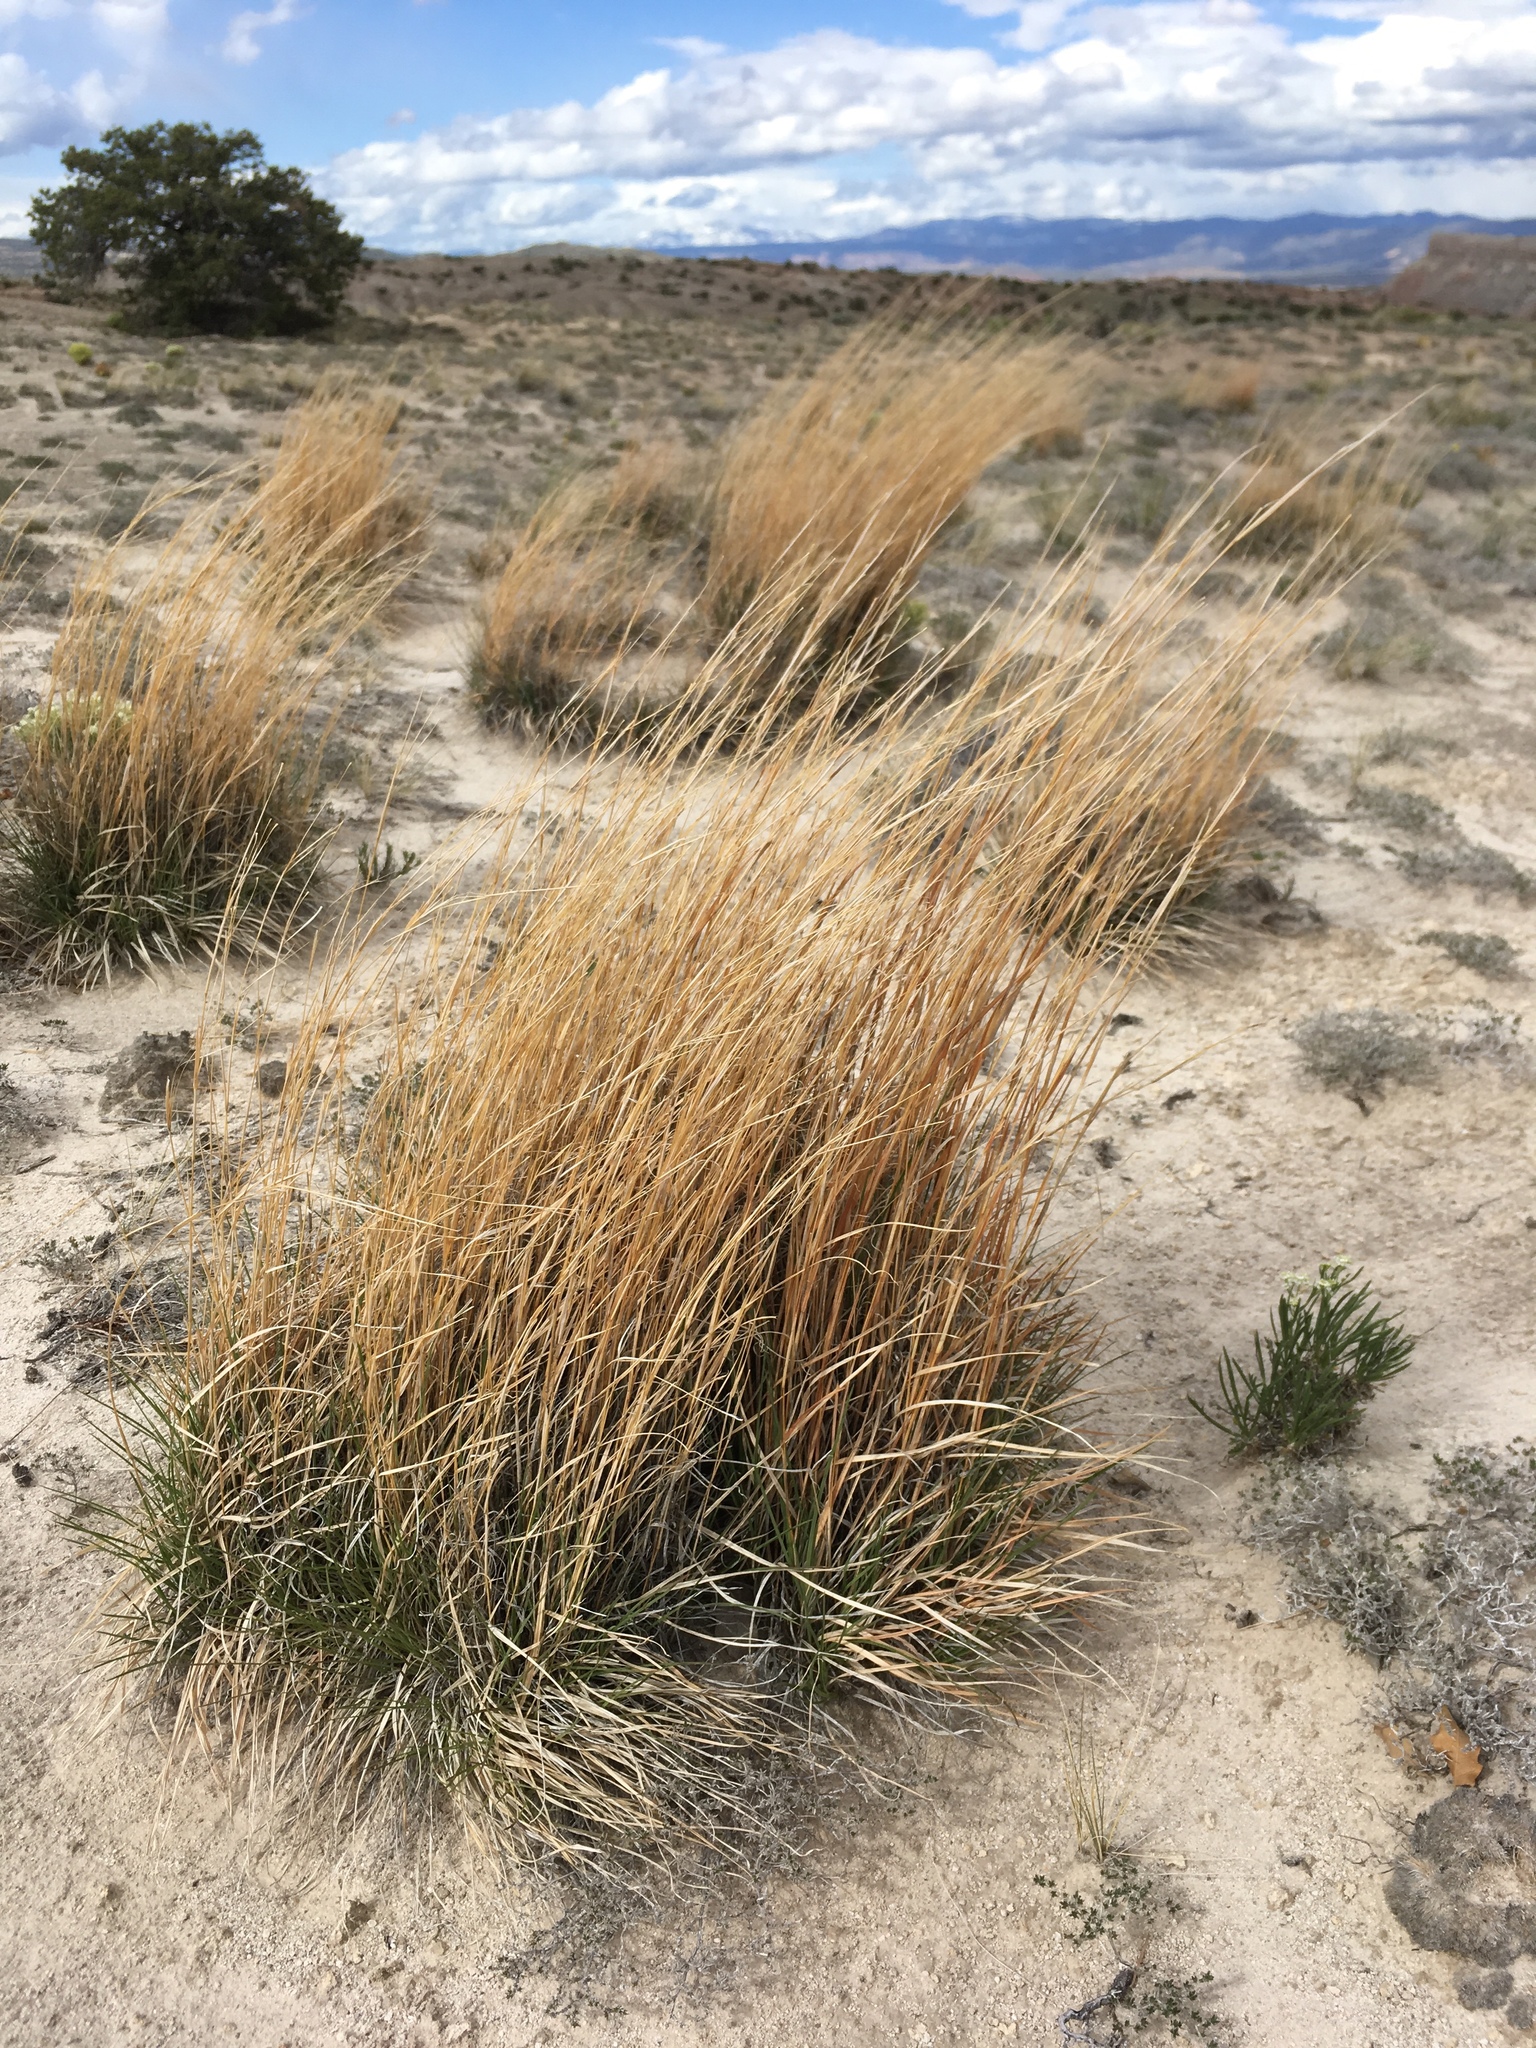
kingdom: Plantae
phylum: Tracheophyta
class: Liliopsida
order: Poales
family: Poaceae
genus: Schizachyrium
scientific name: Schizachyrium scoparium
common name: Little bluestem
